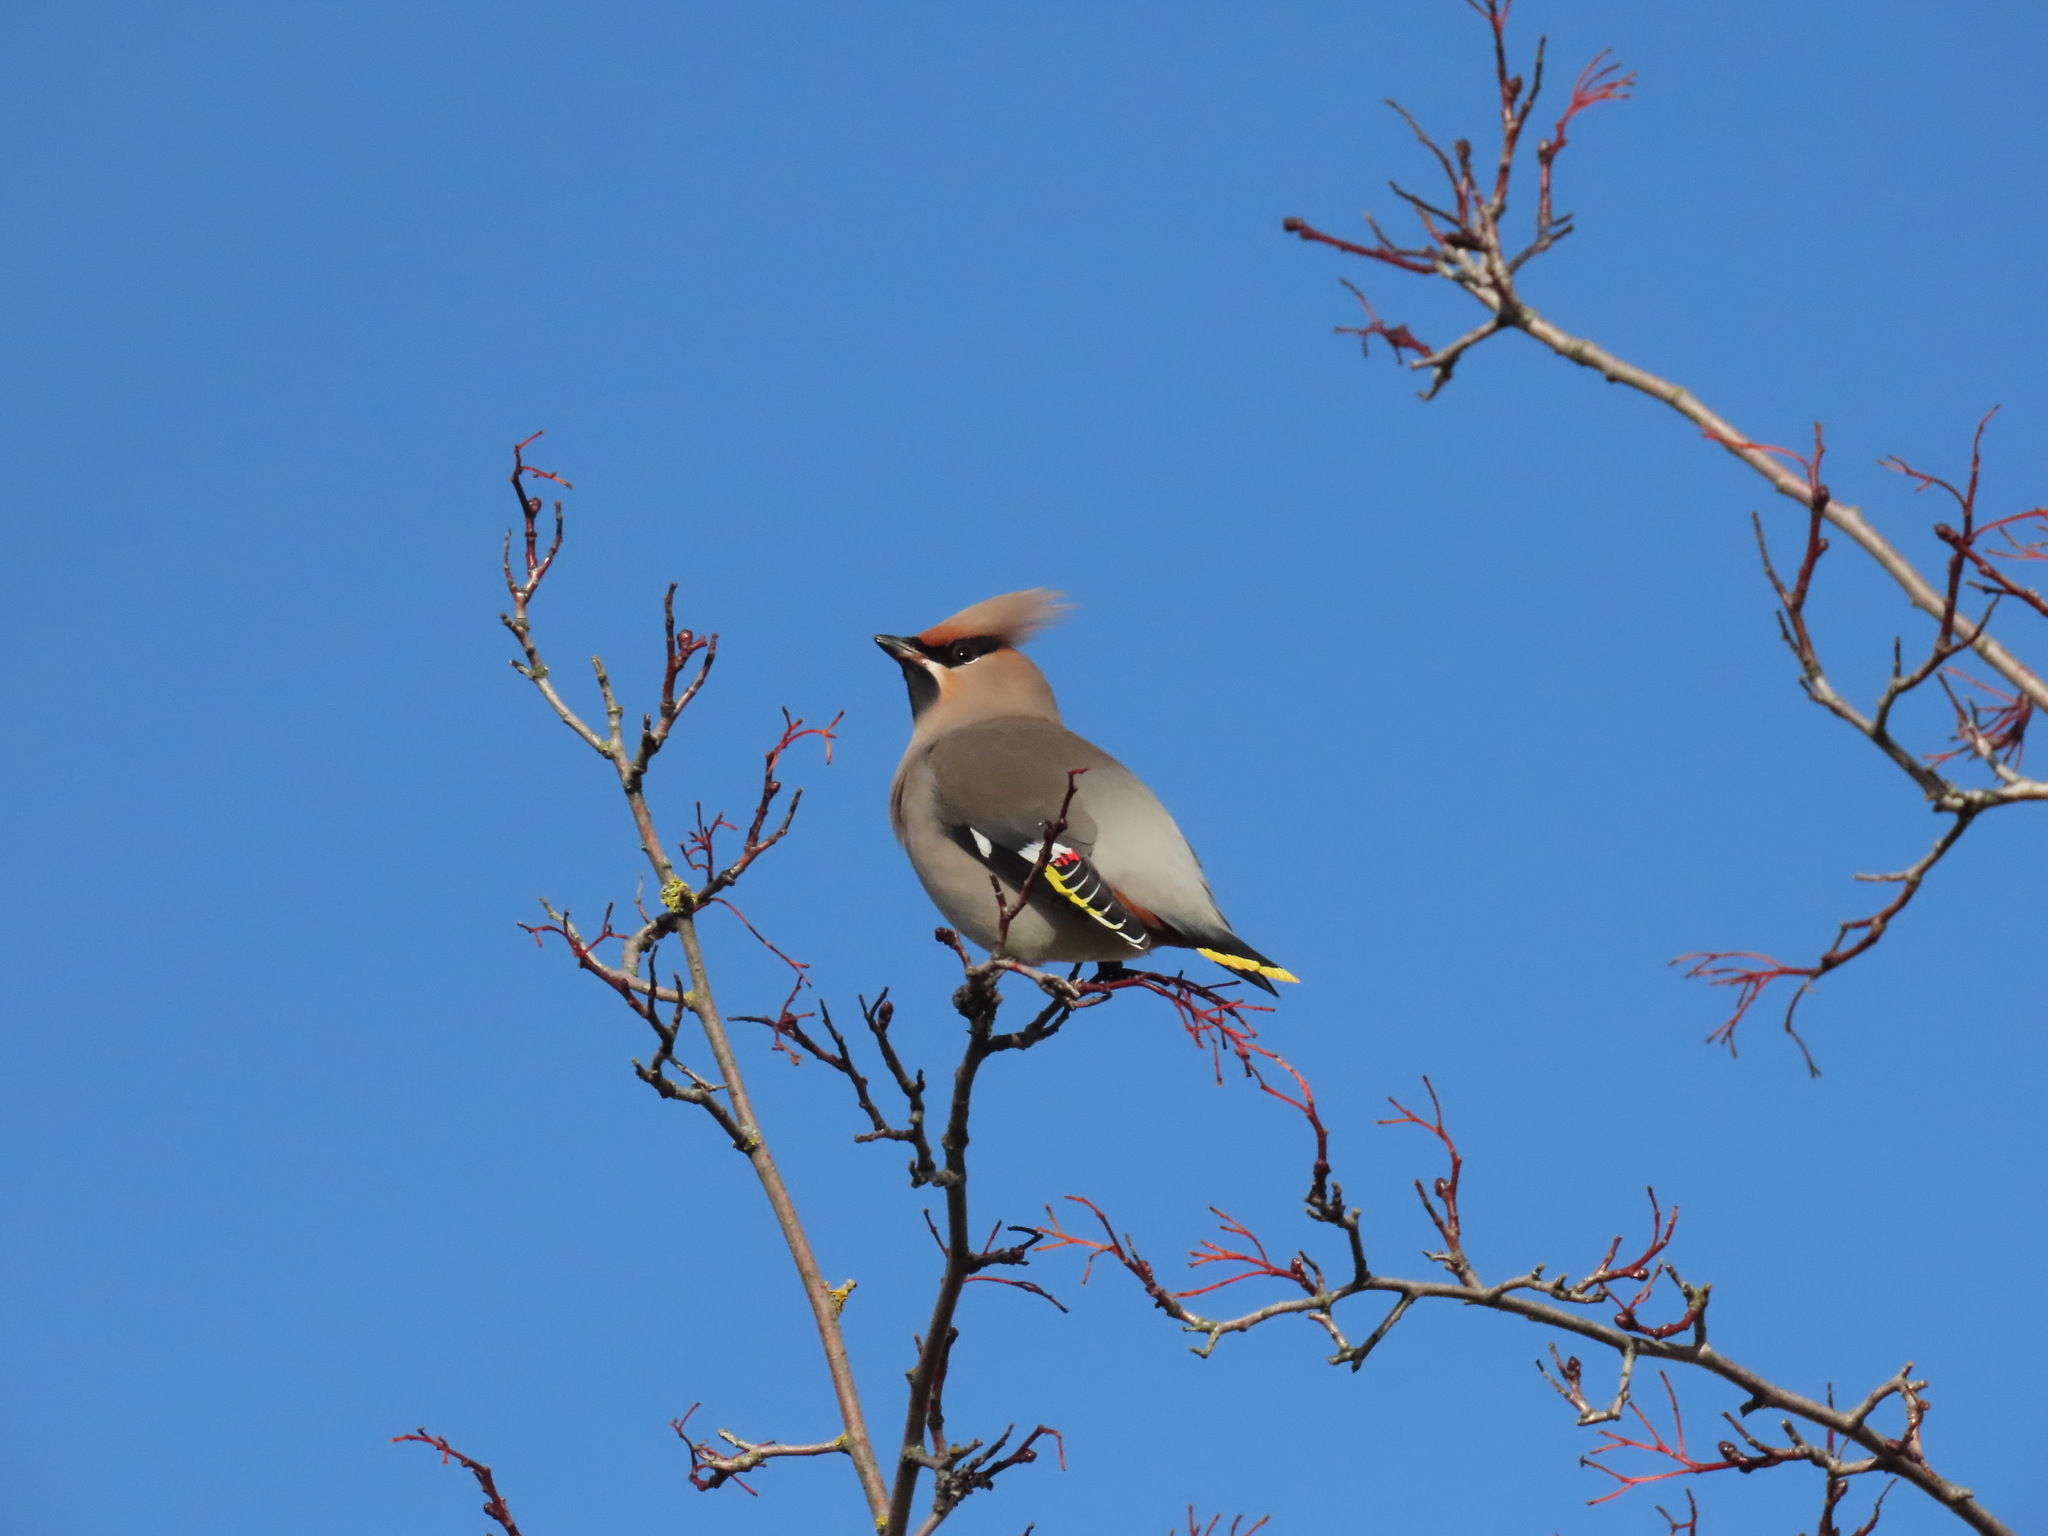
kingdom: Animalia
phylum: Chordata
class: Aves
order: Passeriformes
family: Bombycillidae
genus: Bombycilla
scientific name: Bombycilla garrulus
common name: Bohemian waxwing
